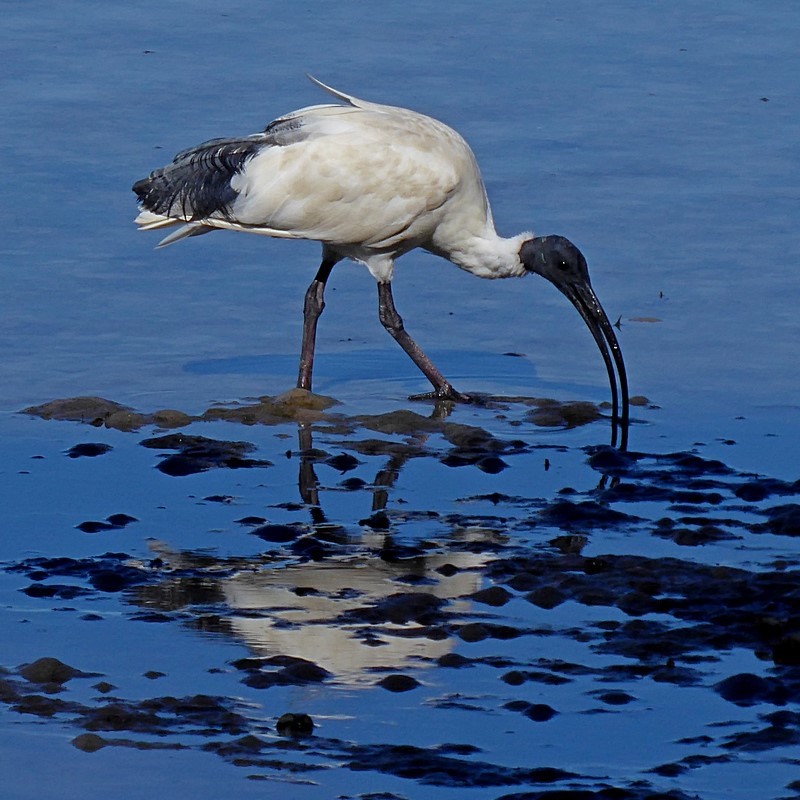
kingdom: Animalia
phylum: Chordata
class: Aves
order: Pelecaniformes
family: Threskiornithidae
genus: Threskiornis
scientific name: Threskiornis molucca
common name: Australian white ibis
